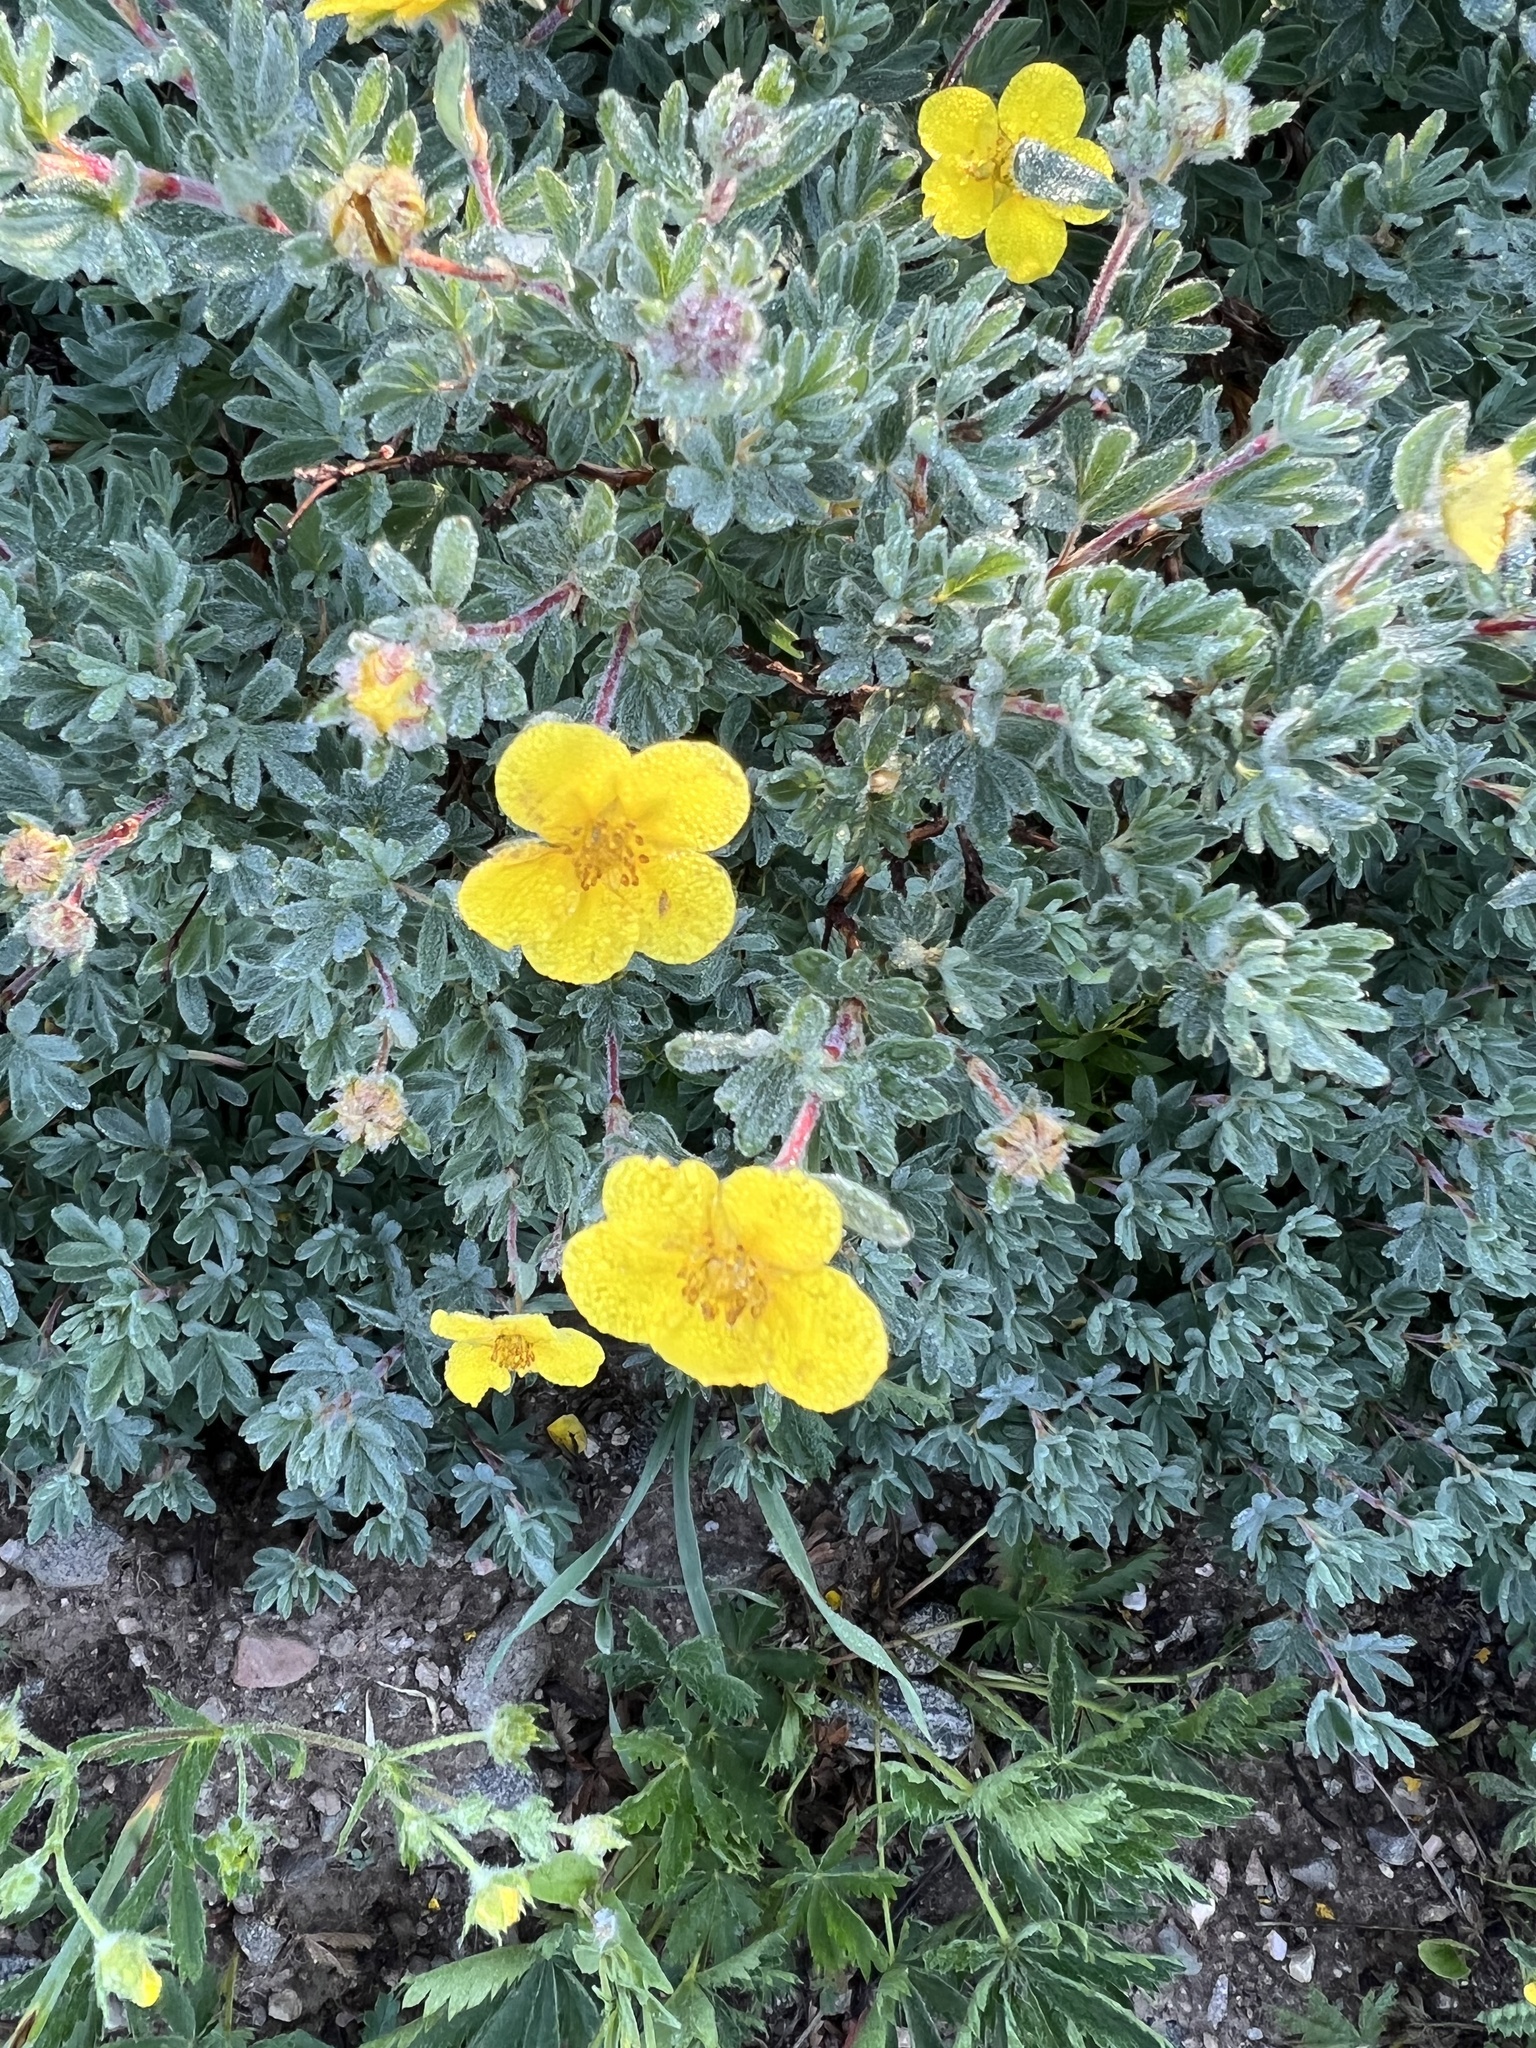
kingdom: Plantae
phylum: Tracheophyta
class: Magnoliopsida
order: Rosales
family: Rosaceae
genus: Dasiphora
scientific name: Dasiphora fruticosa
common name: Shrubby cinquefoil
